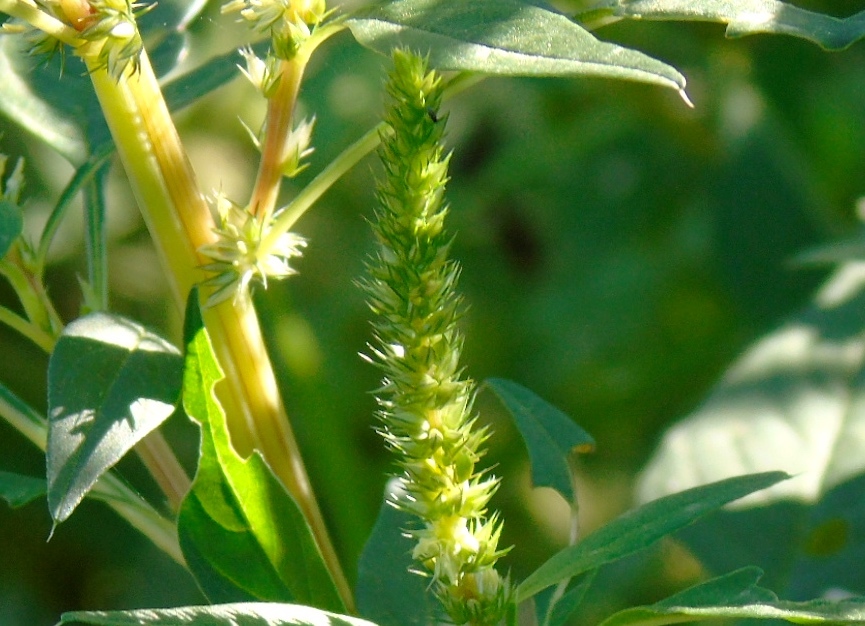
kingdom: Plantae
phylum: Tracheophyta
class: Magnoliopsida
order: Caryophyllales
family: Amaranthaceae
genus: Amaranthus
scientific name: Amaranthus
